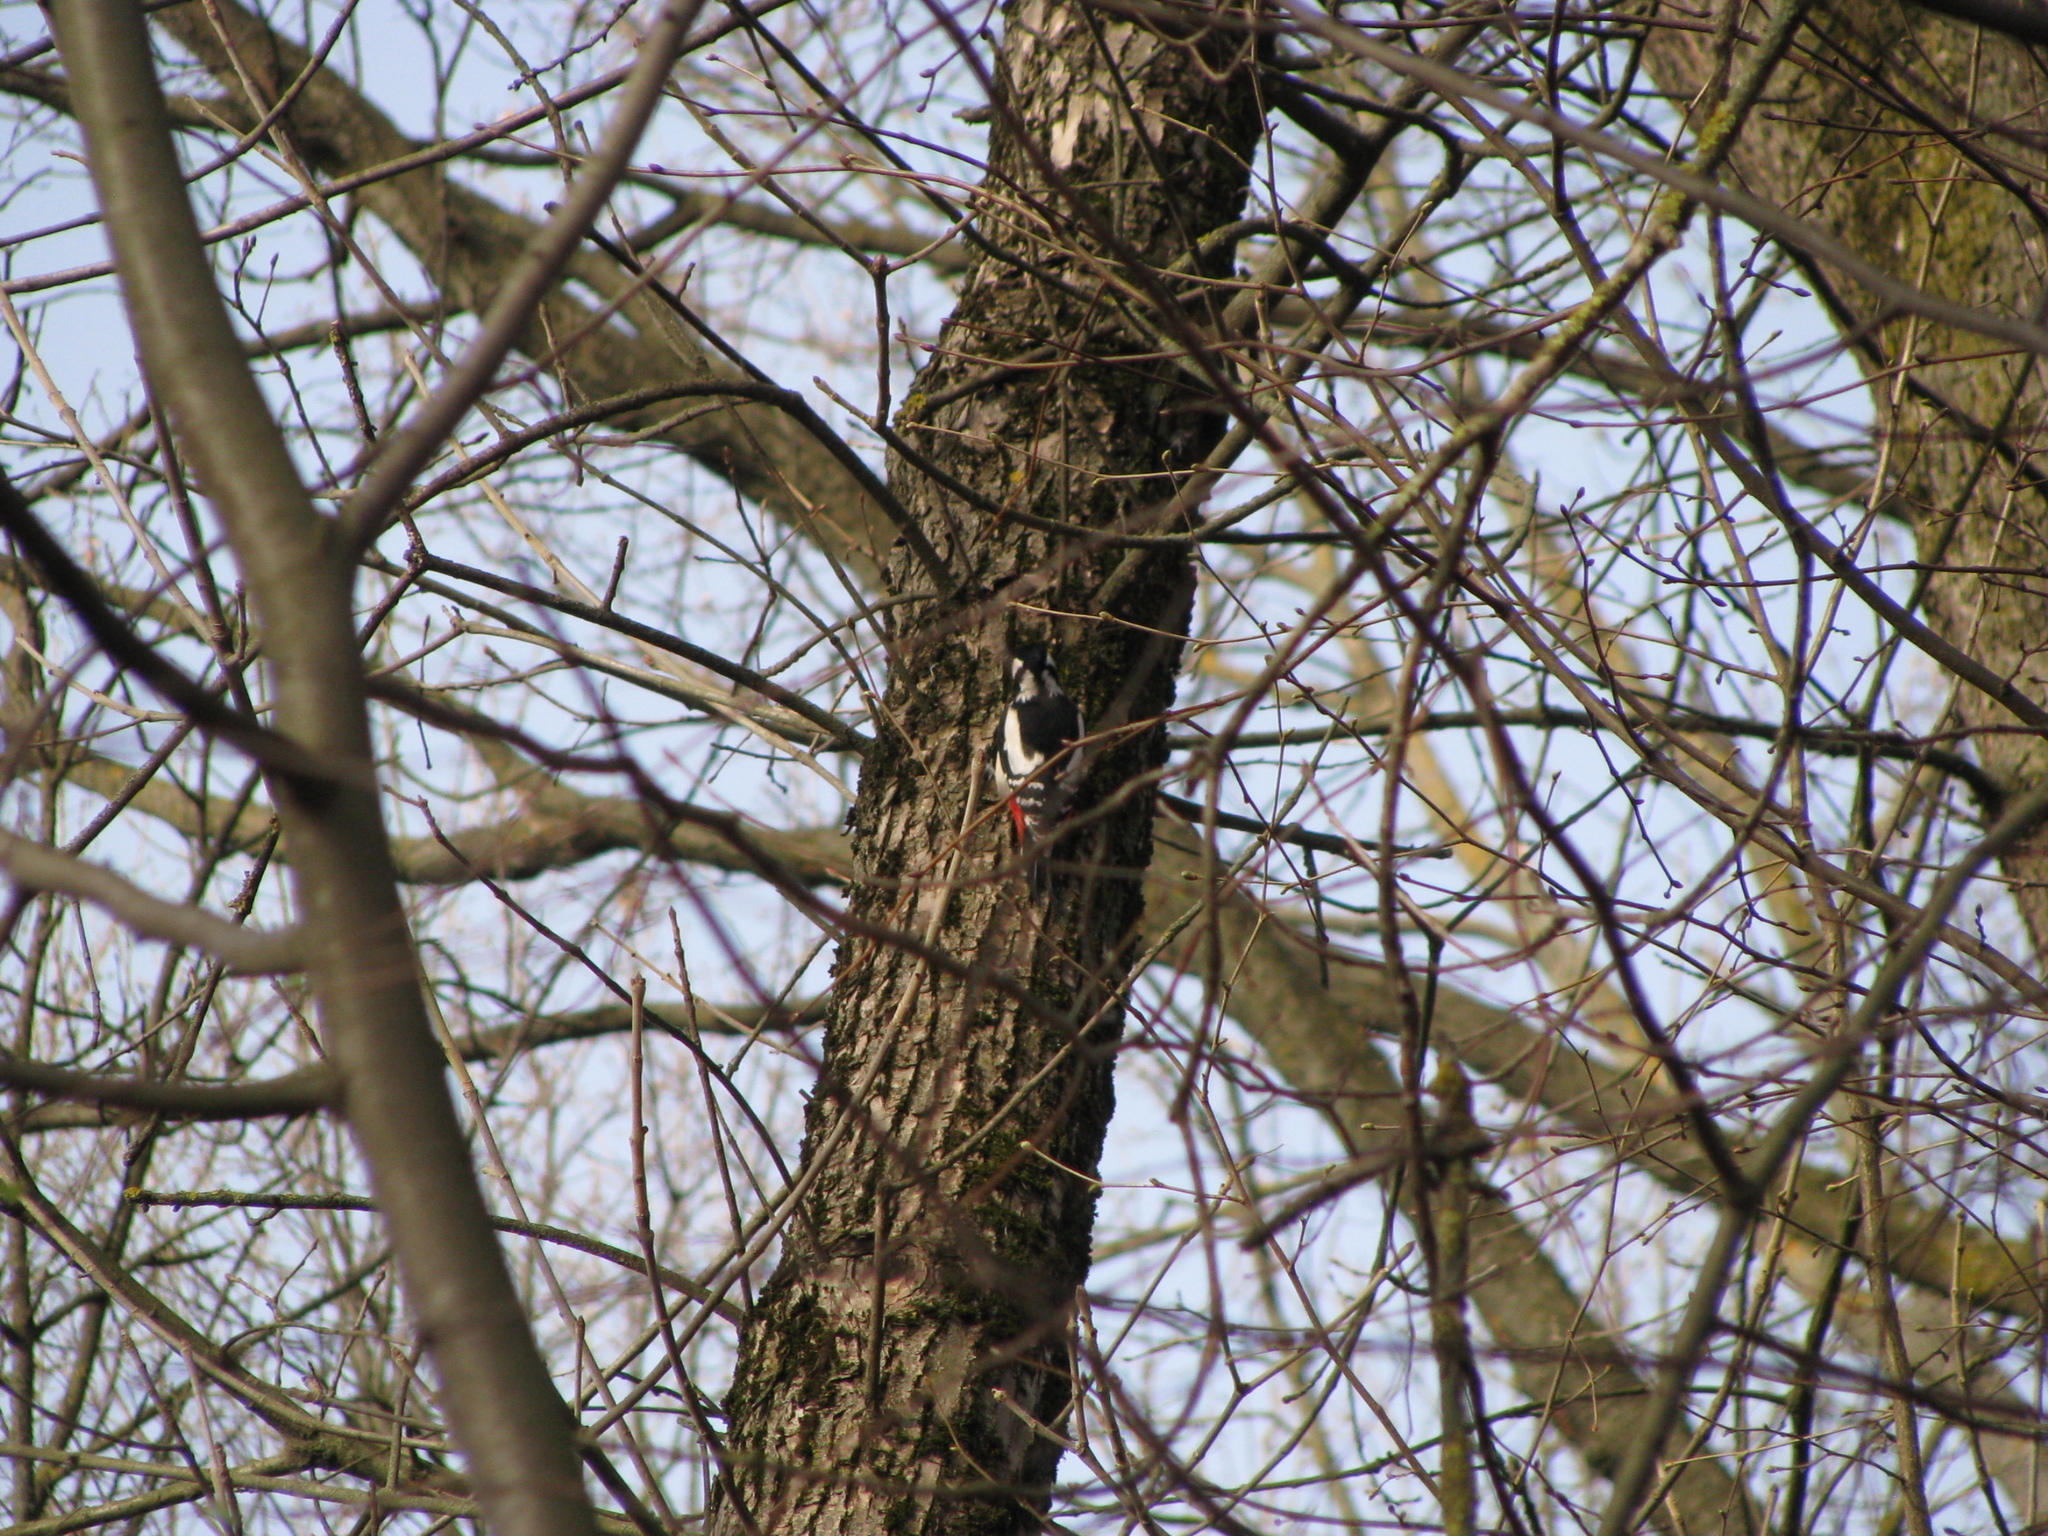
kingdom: Animalia
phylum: Chordata
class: Aves
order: Piciformes
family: Picidae
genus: Dendrocopos
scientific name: Dendrocopos major
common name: Great spotted woodpecker
